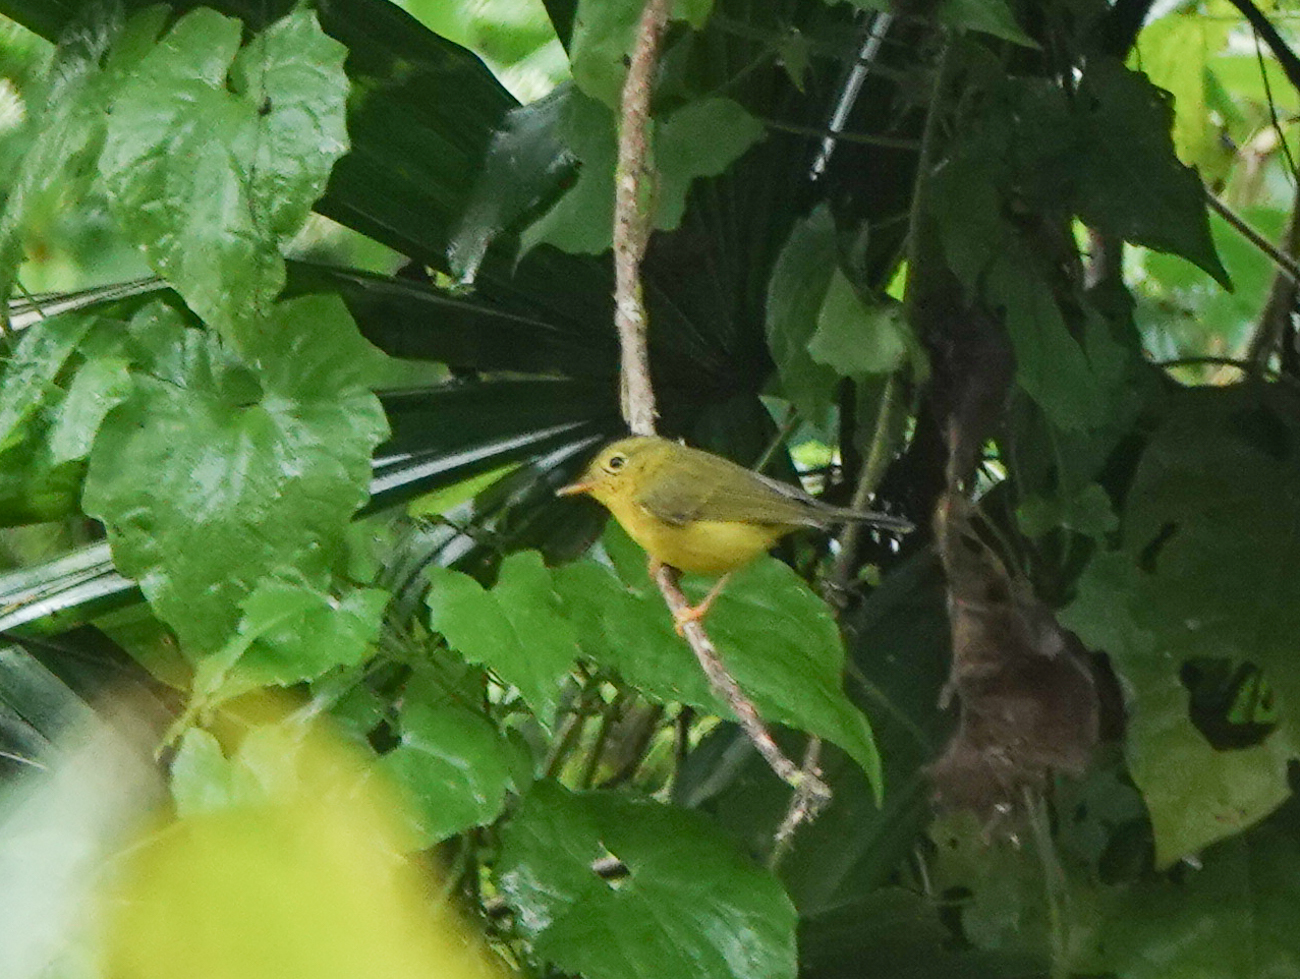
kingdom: Animalia
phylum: Chordata
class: Aves
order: Passeriformes
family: Phylloscopidae
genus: Seicercus
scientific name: Seicercus burkii
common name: Green-crowned warbler
